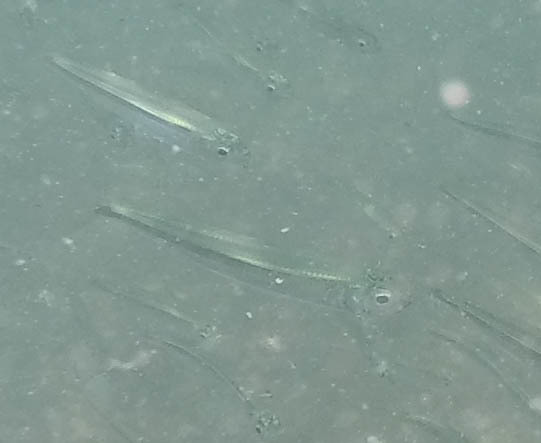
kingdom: Animalia
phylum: Chordata
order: Atheriniformes
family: Atherinidae
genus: Atherina
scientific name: Atherina
